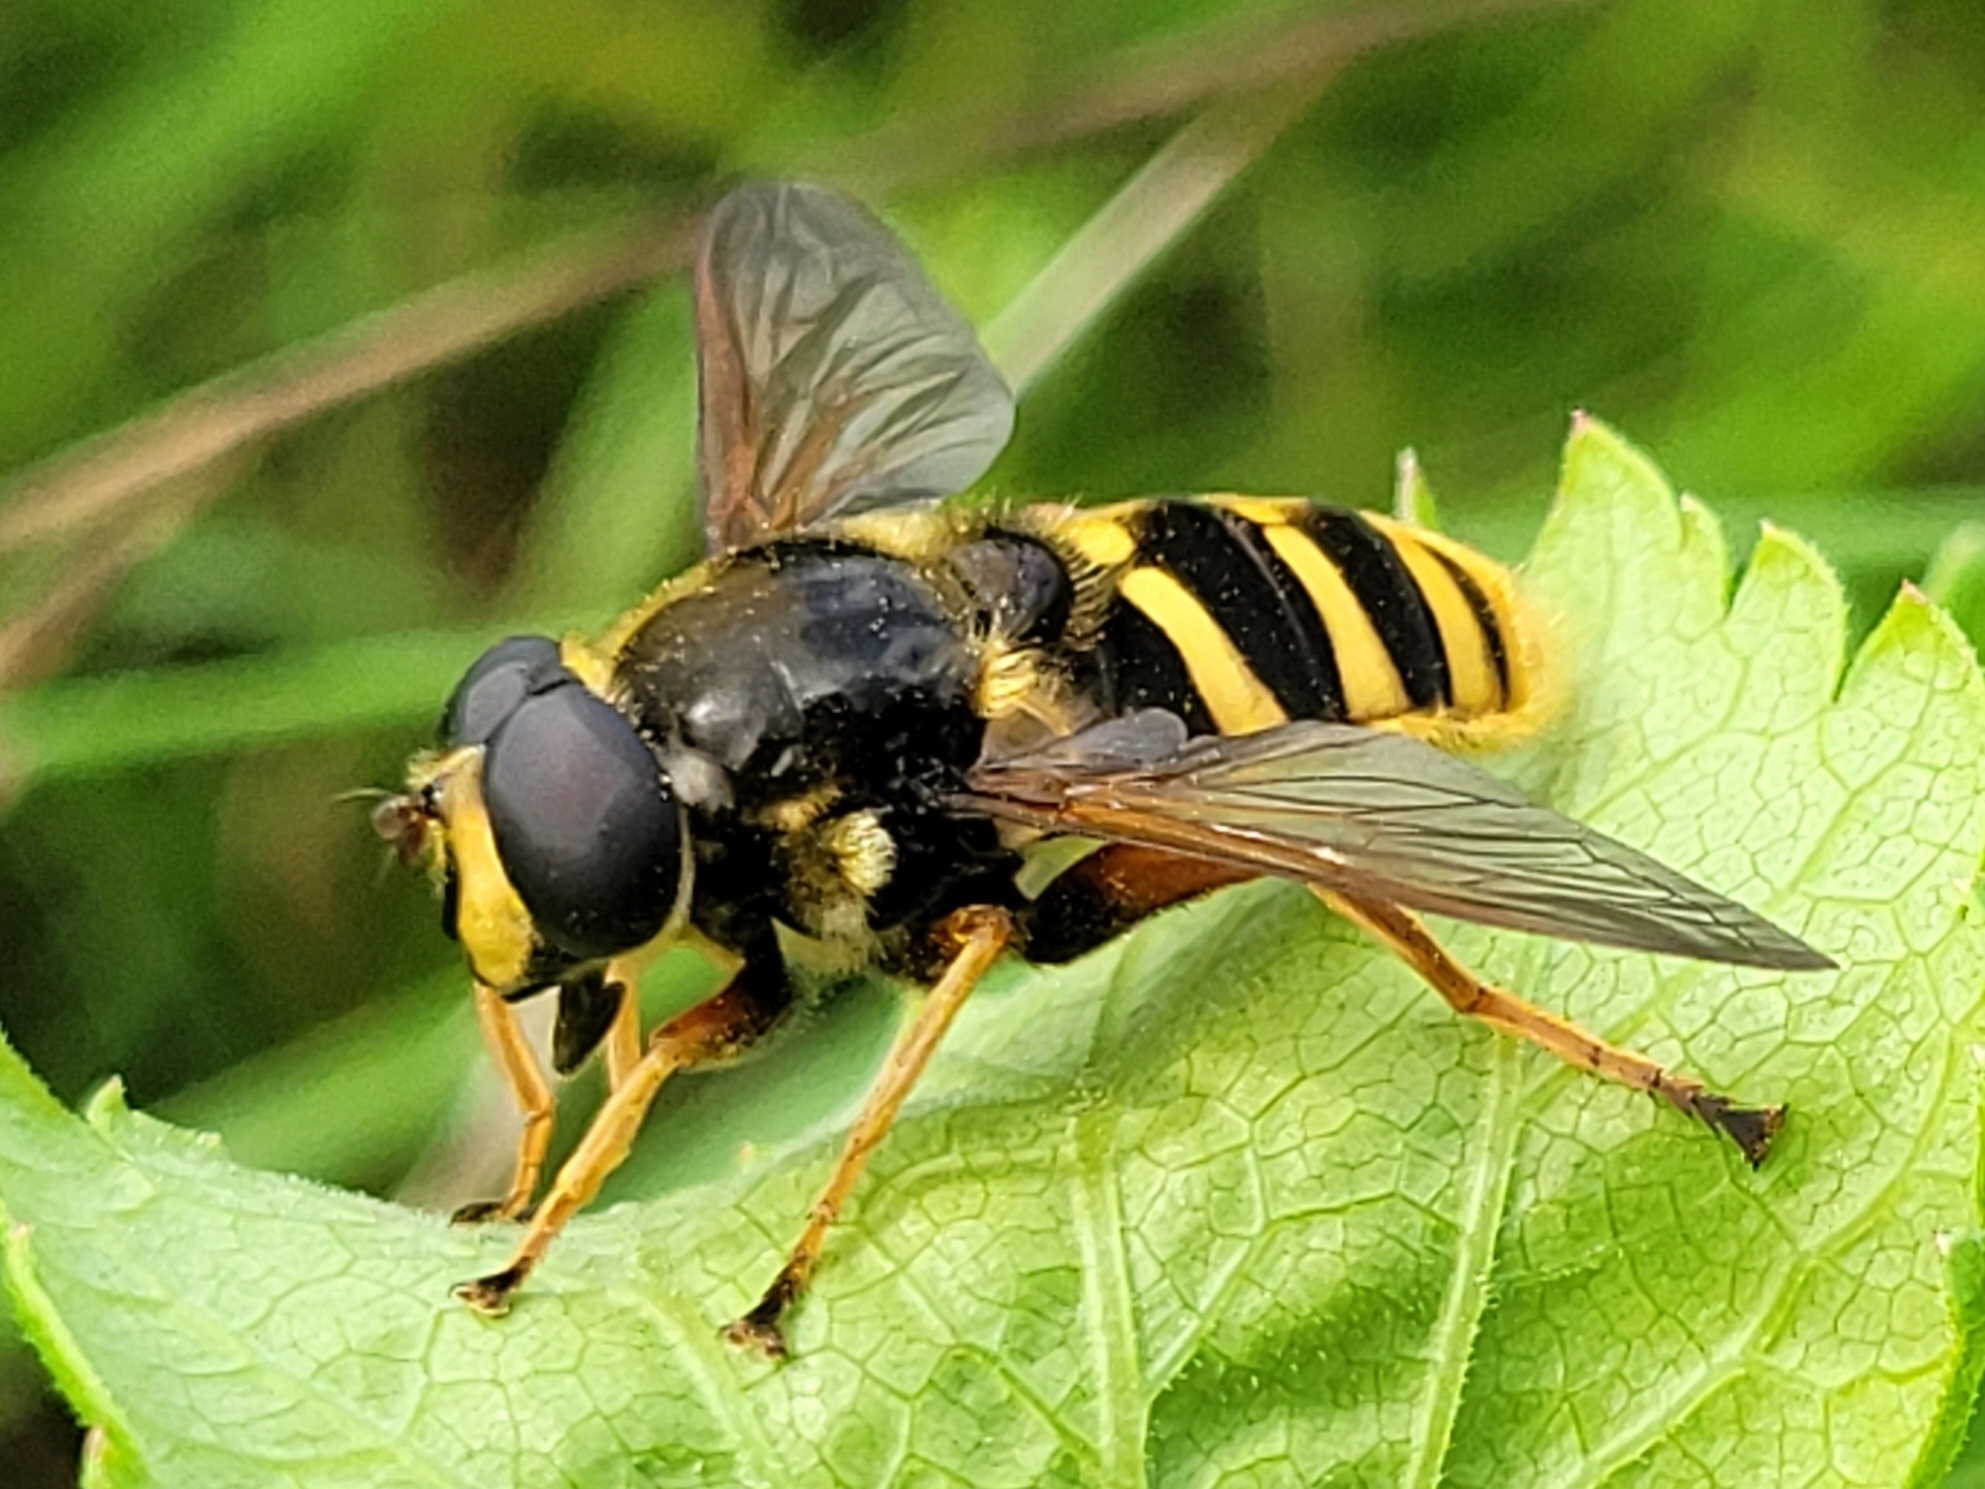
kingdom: Animalia
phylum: Arthropoda
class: Insecta
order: Diptera
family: Syrphidae
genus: Sericomyia
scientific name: Sericomyia silentis
